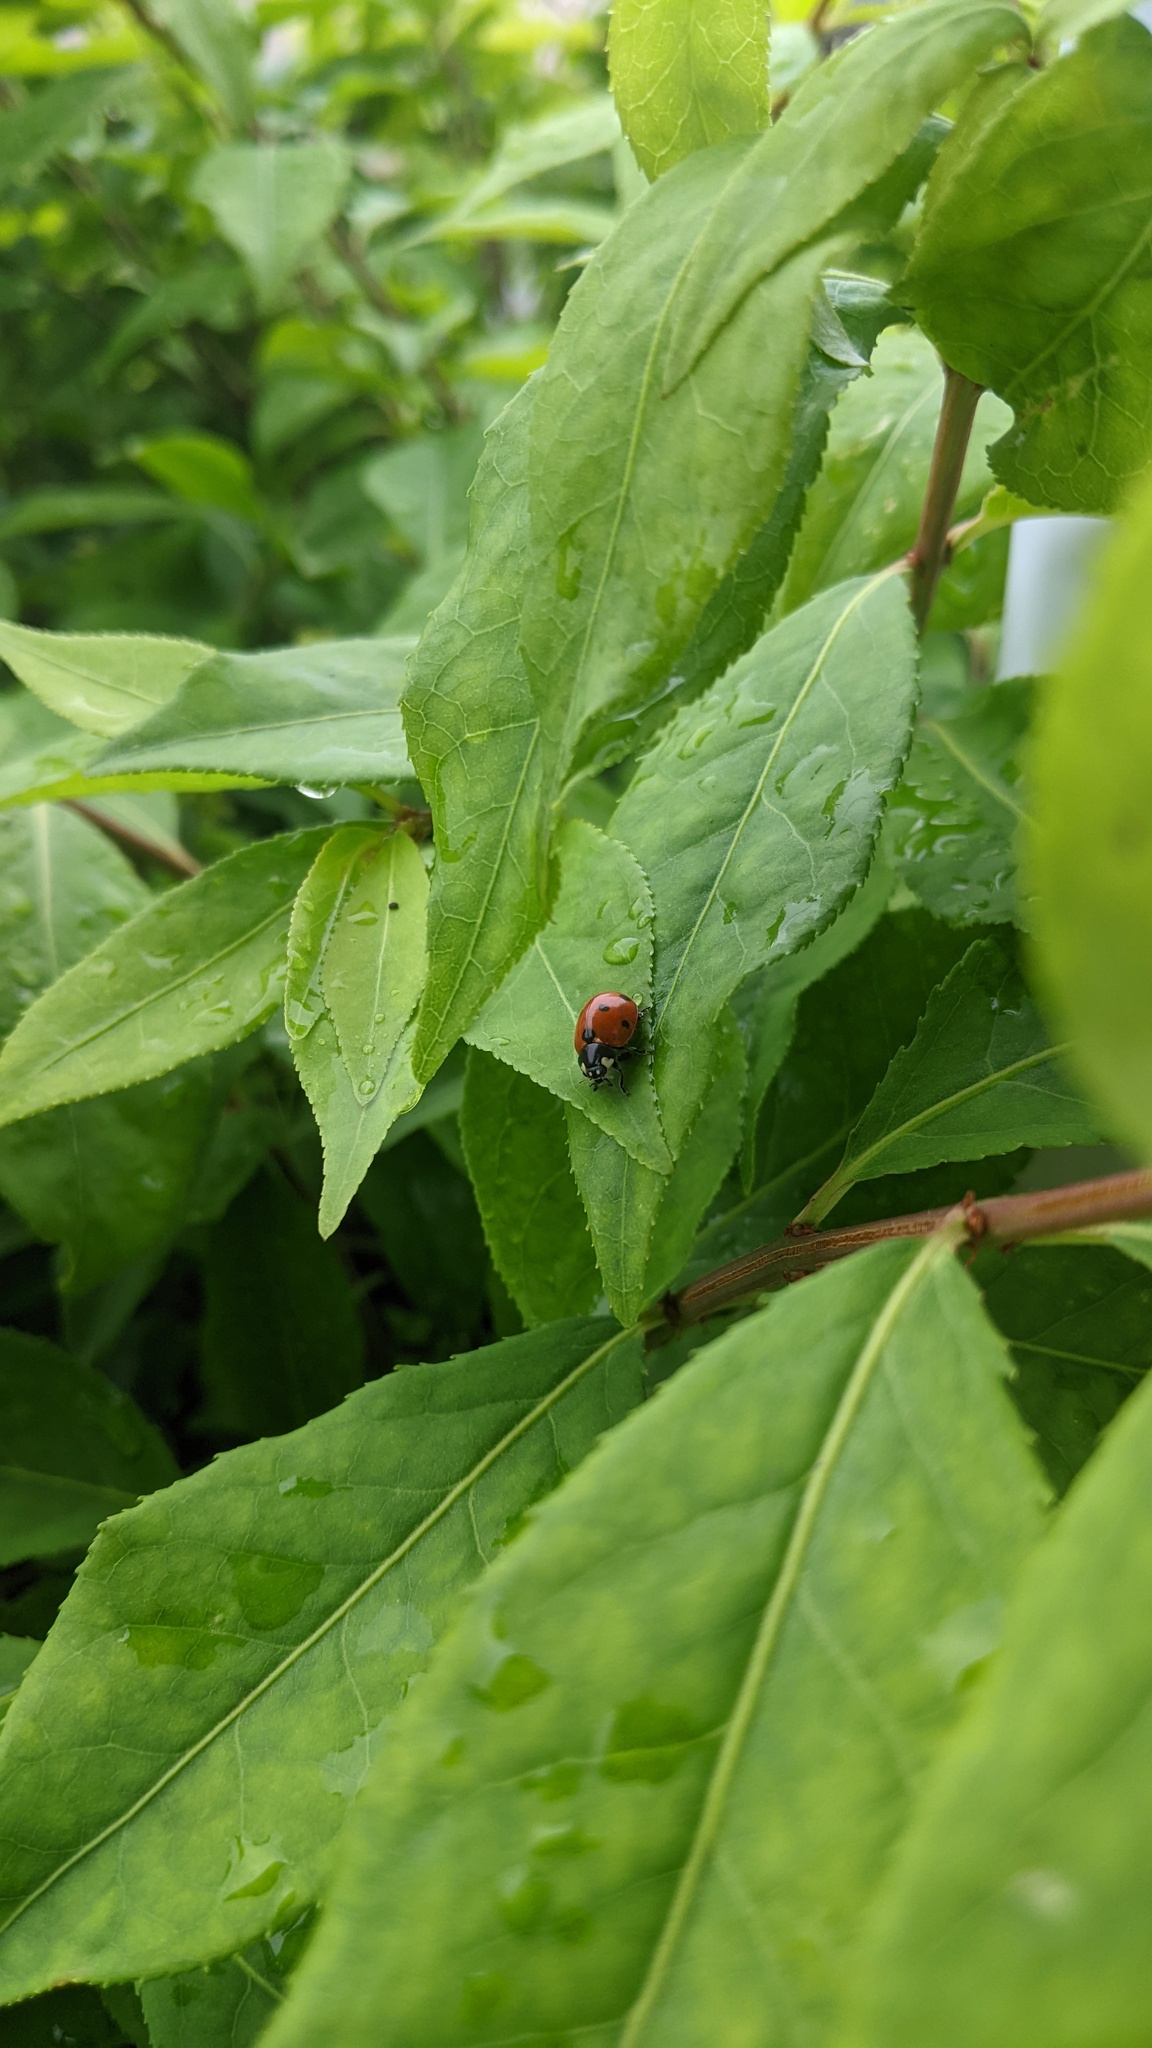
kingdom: Animalia
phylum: Arthropoda
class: Insecta
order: Coleoptera
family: Coccinellidae
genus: Coccinella
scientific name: Coccinella septempunctata
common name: Sevenspotted lady beetle
